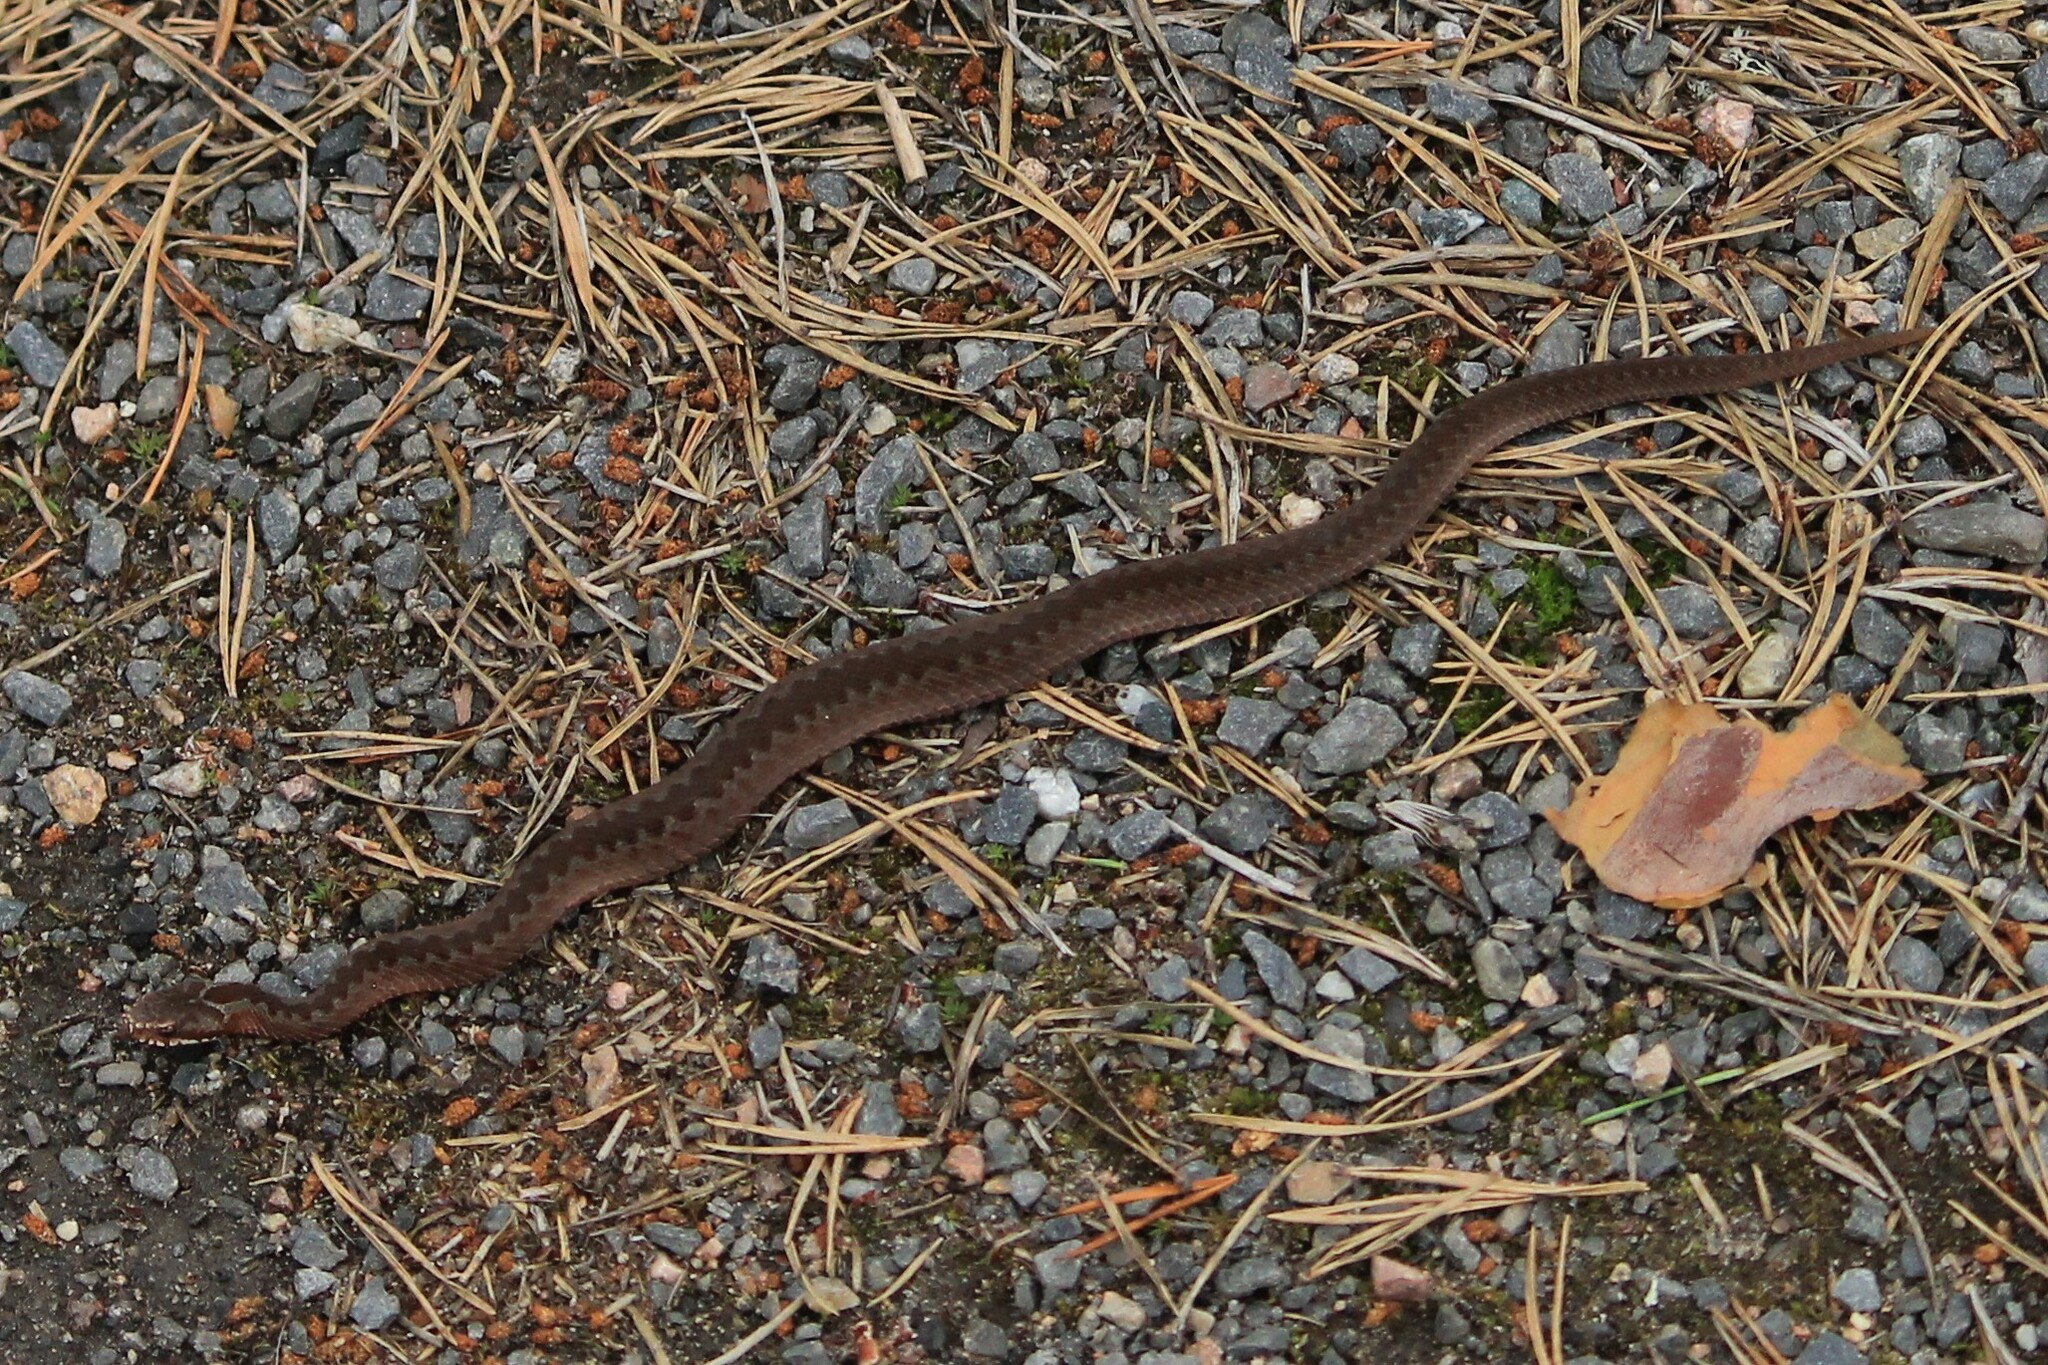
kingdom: Animalia
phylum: Chordata
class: Squamata
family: Viperidae
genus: Vipera
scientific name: Vipera berus
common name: Adder
